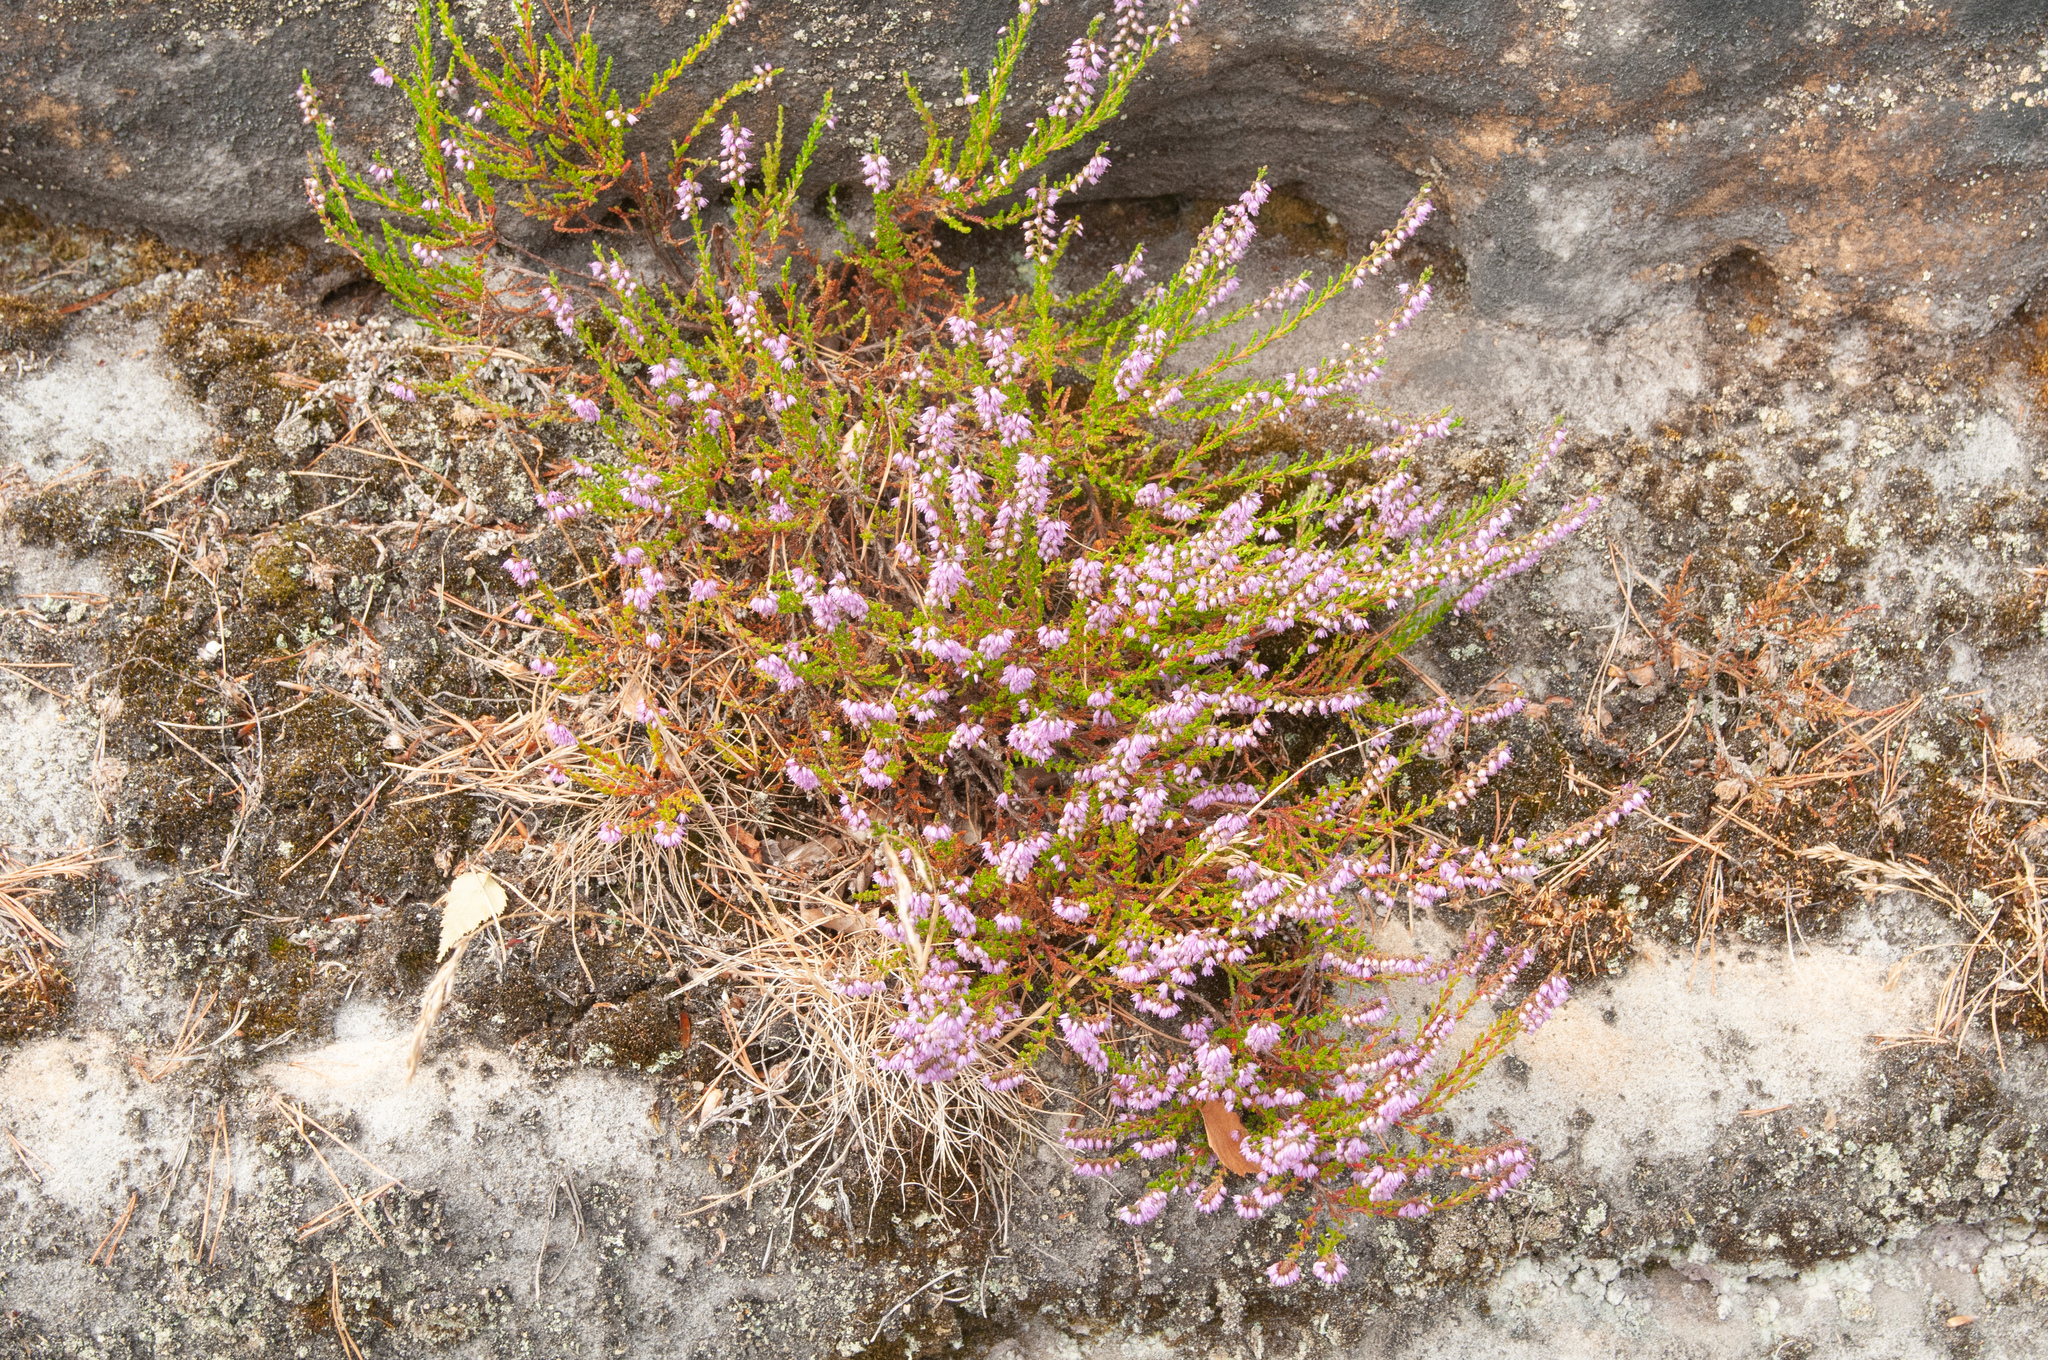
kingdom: Plantae
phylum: Tracheophyta
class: Magnoliopsida
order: Ericales
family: Ericaceae
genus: Calluna
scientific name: Calluna vulgaris
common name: Heather
